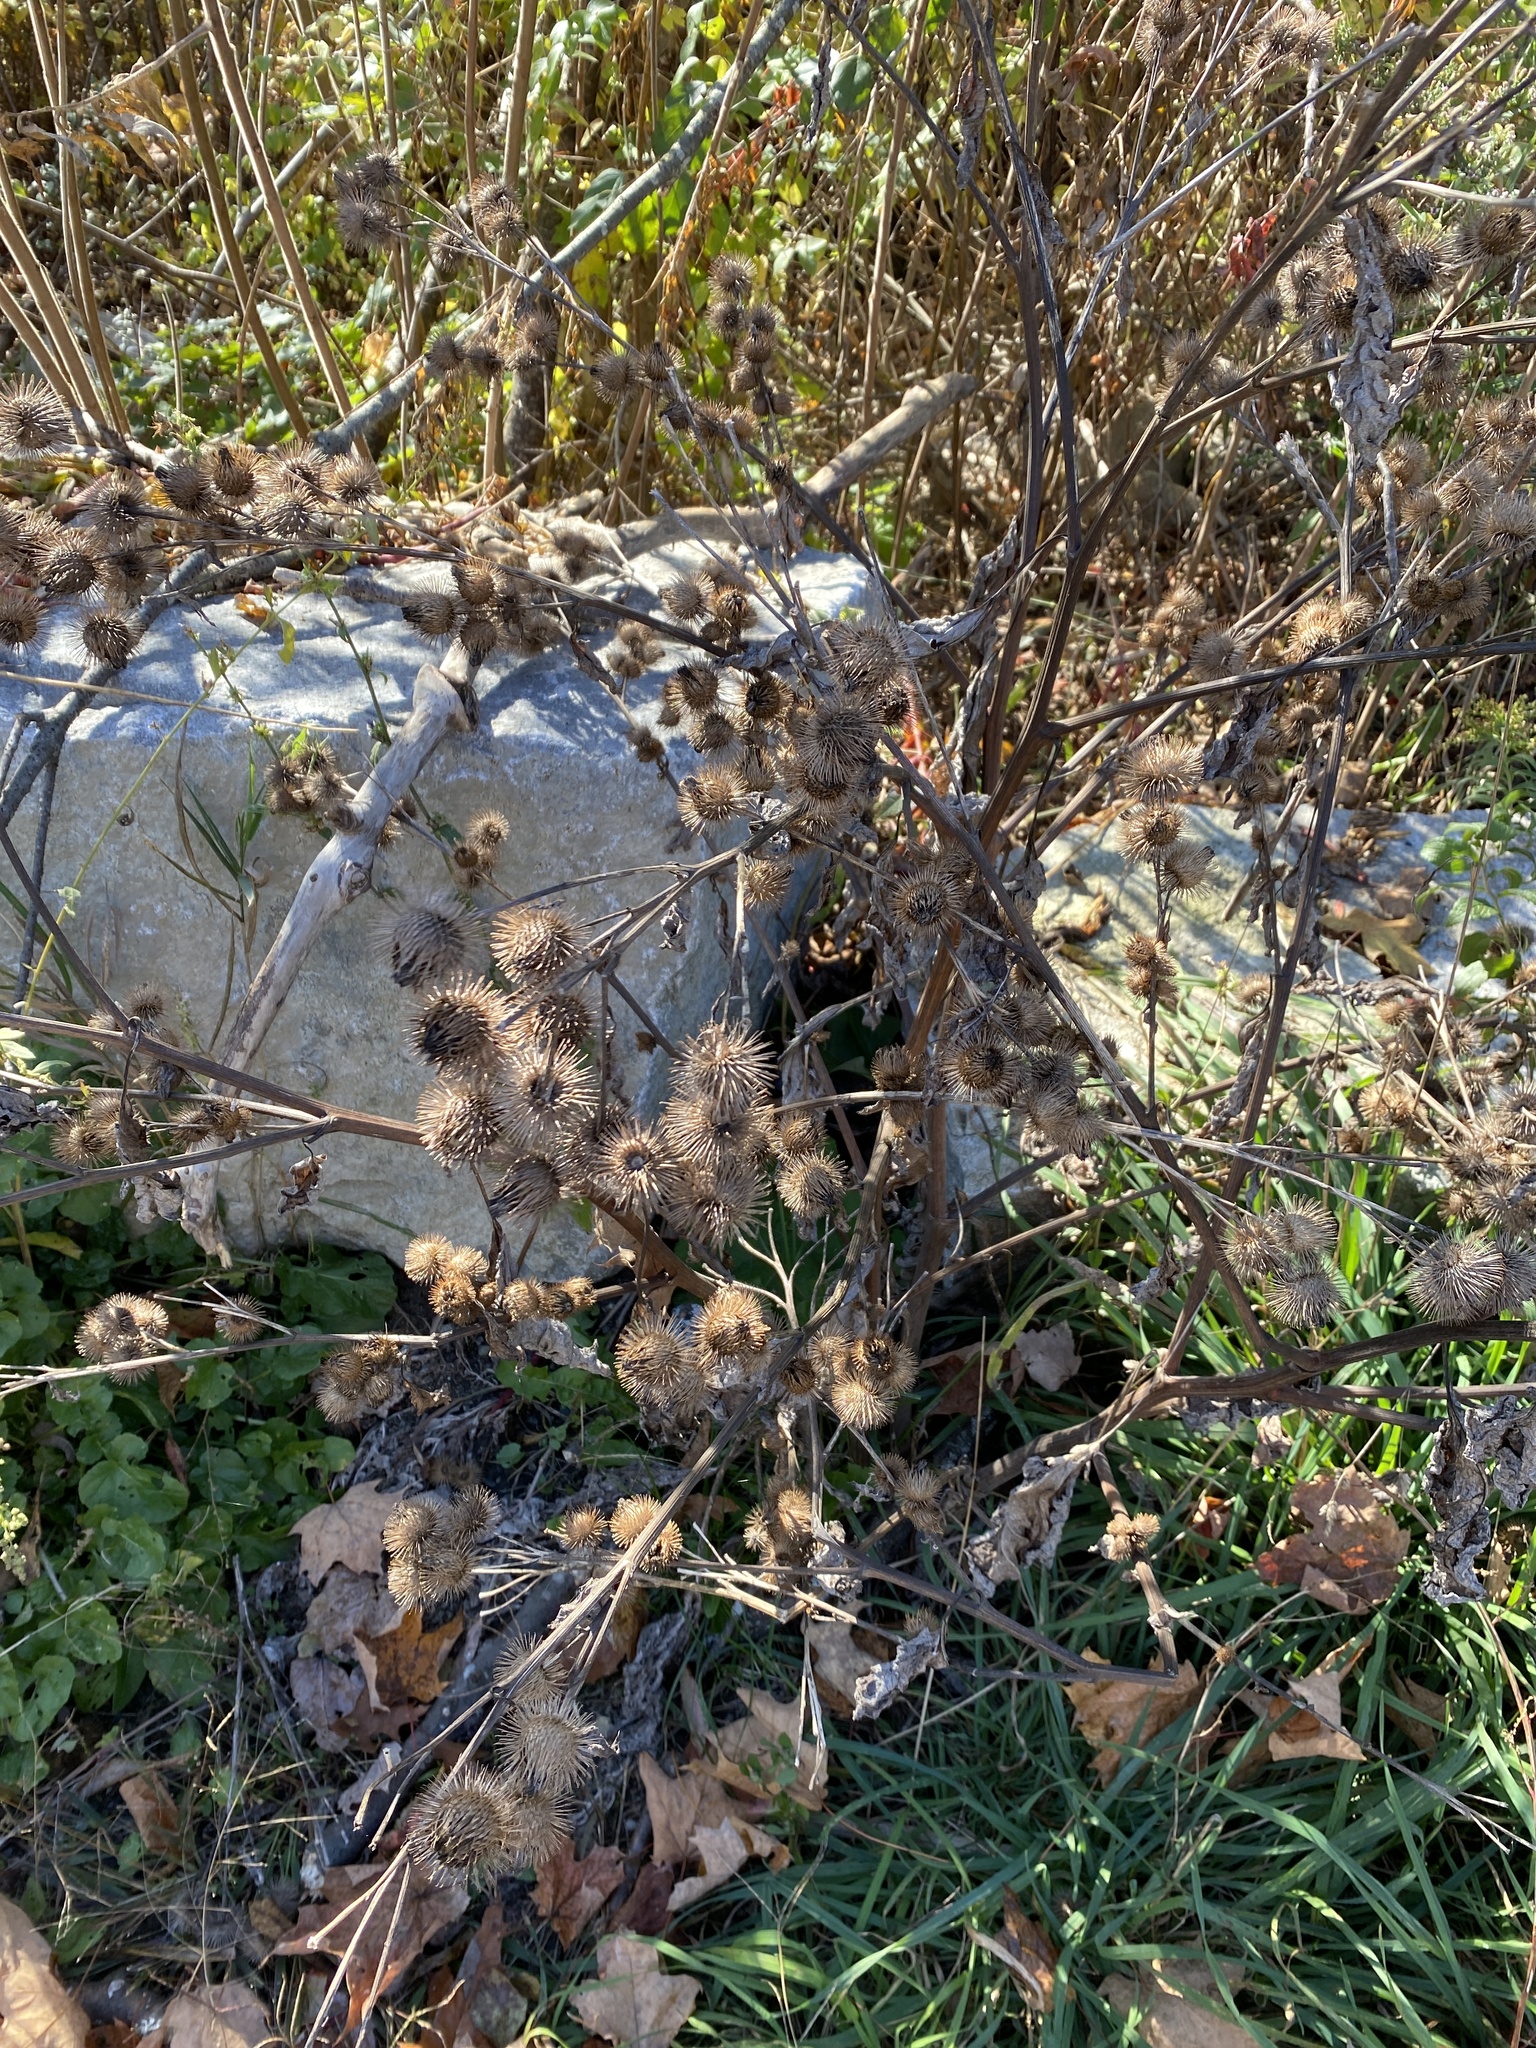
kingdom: Plantae
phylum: Tracheophyta
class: Magnoliopsida
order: Asterales
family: Asteraceae
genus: Arctium
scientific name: Arctium lappa
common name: Greater burdock
